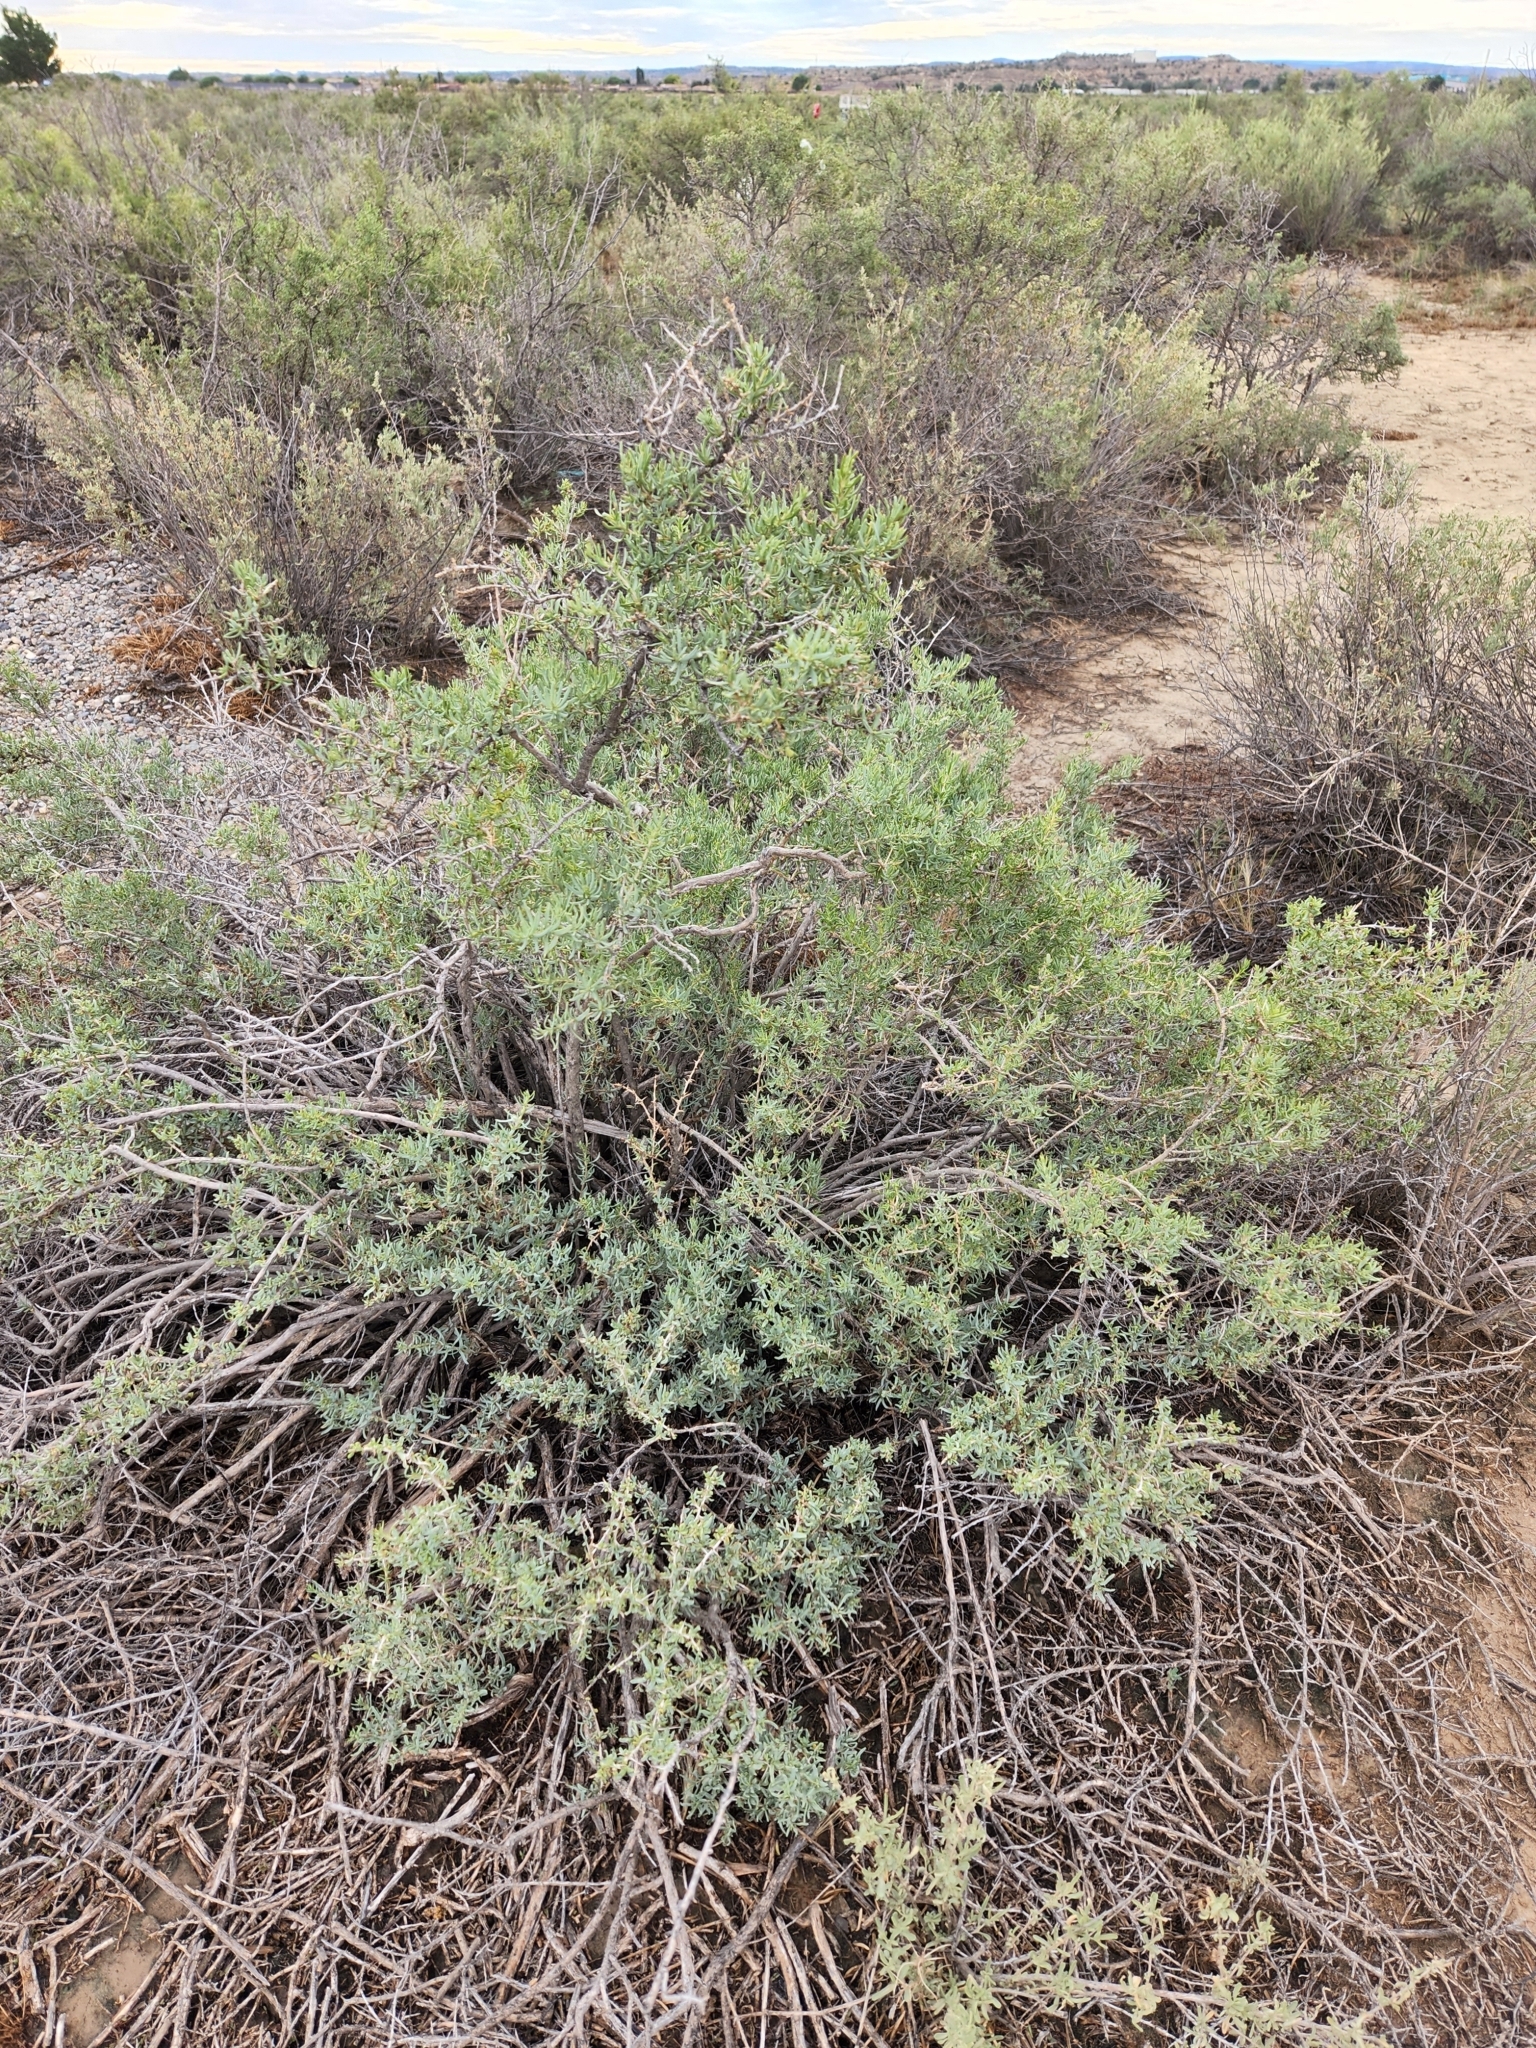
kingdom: Plantae
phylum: Tracheophyta
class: Magnoliopsida
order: Caryophyllales
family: Sarcobataceae
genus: Sarcobatus
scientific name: Sarcobatus vermiculatus
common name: Greasewood
